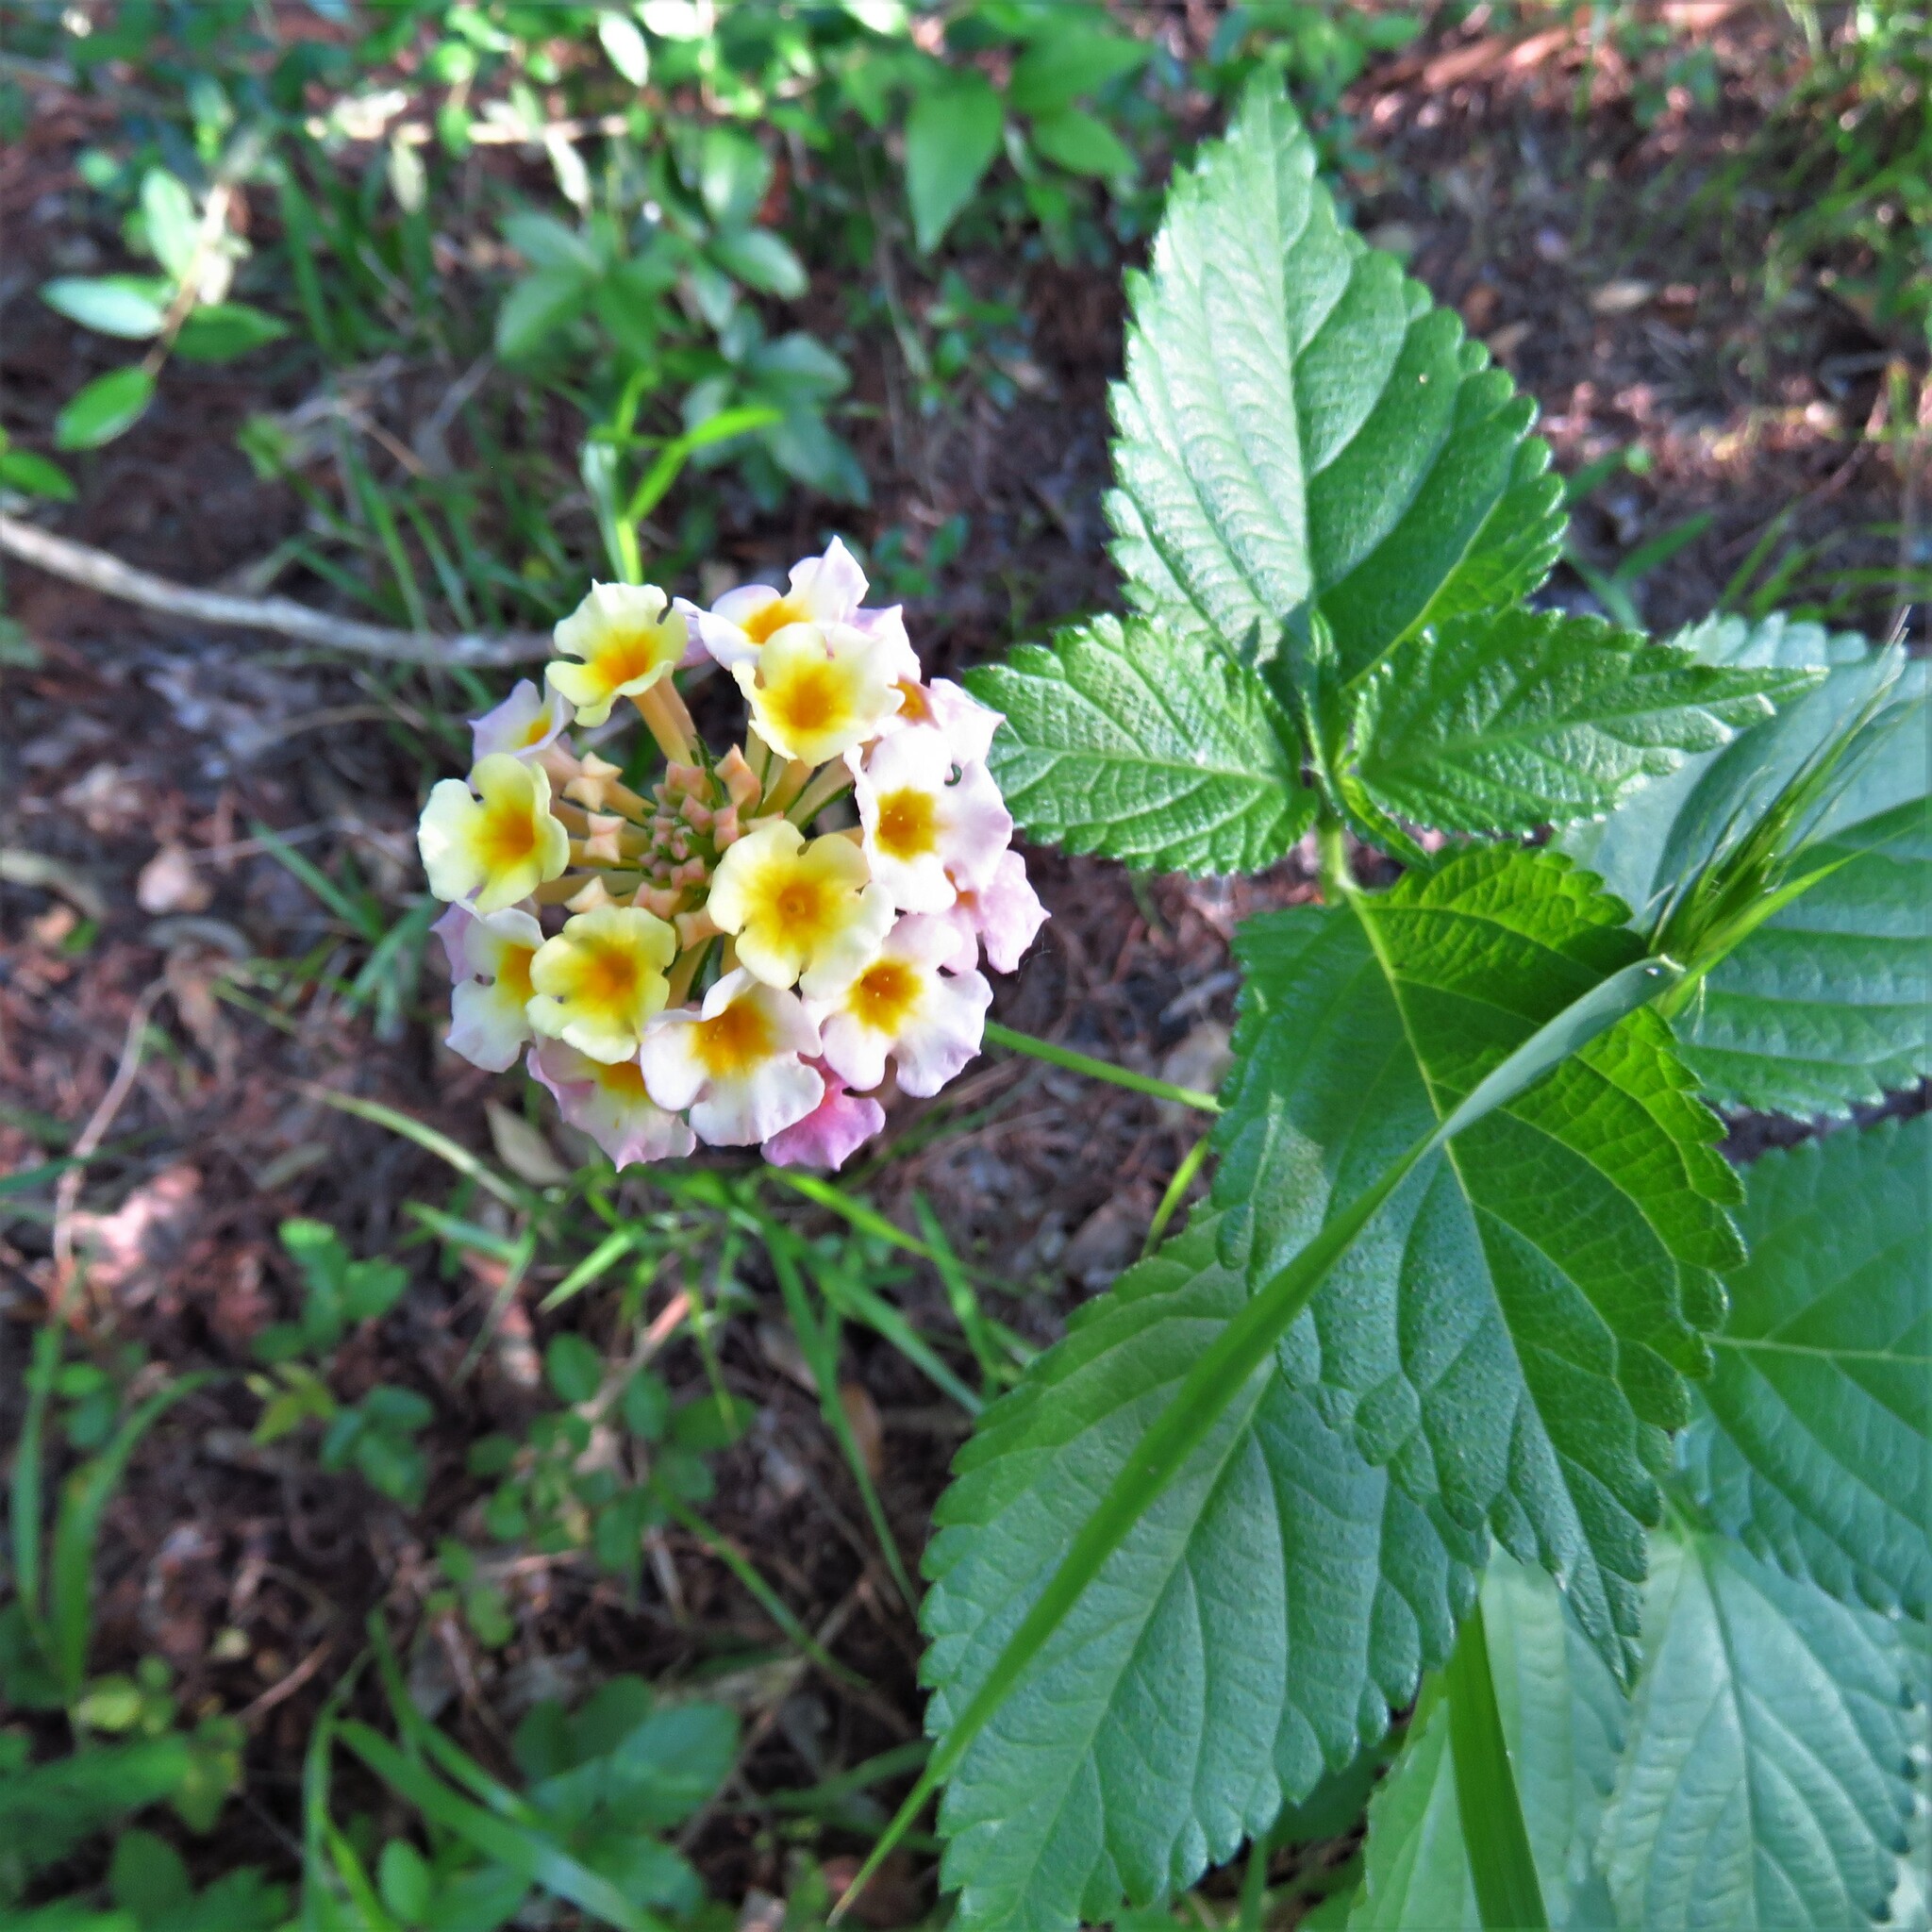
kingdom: Plantae
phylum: Tracheophyta
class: Magnoliopsida
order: Lamiales
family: Verbenaceae
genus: Lantana
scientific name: Lantana strigocamara
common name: Lantana
